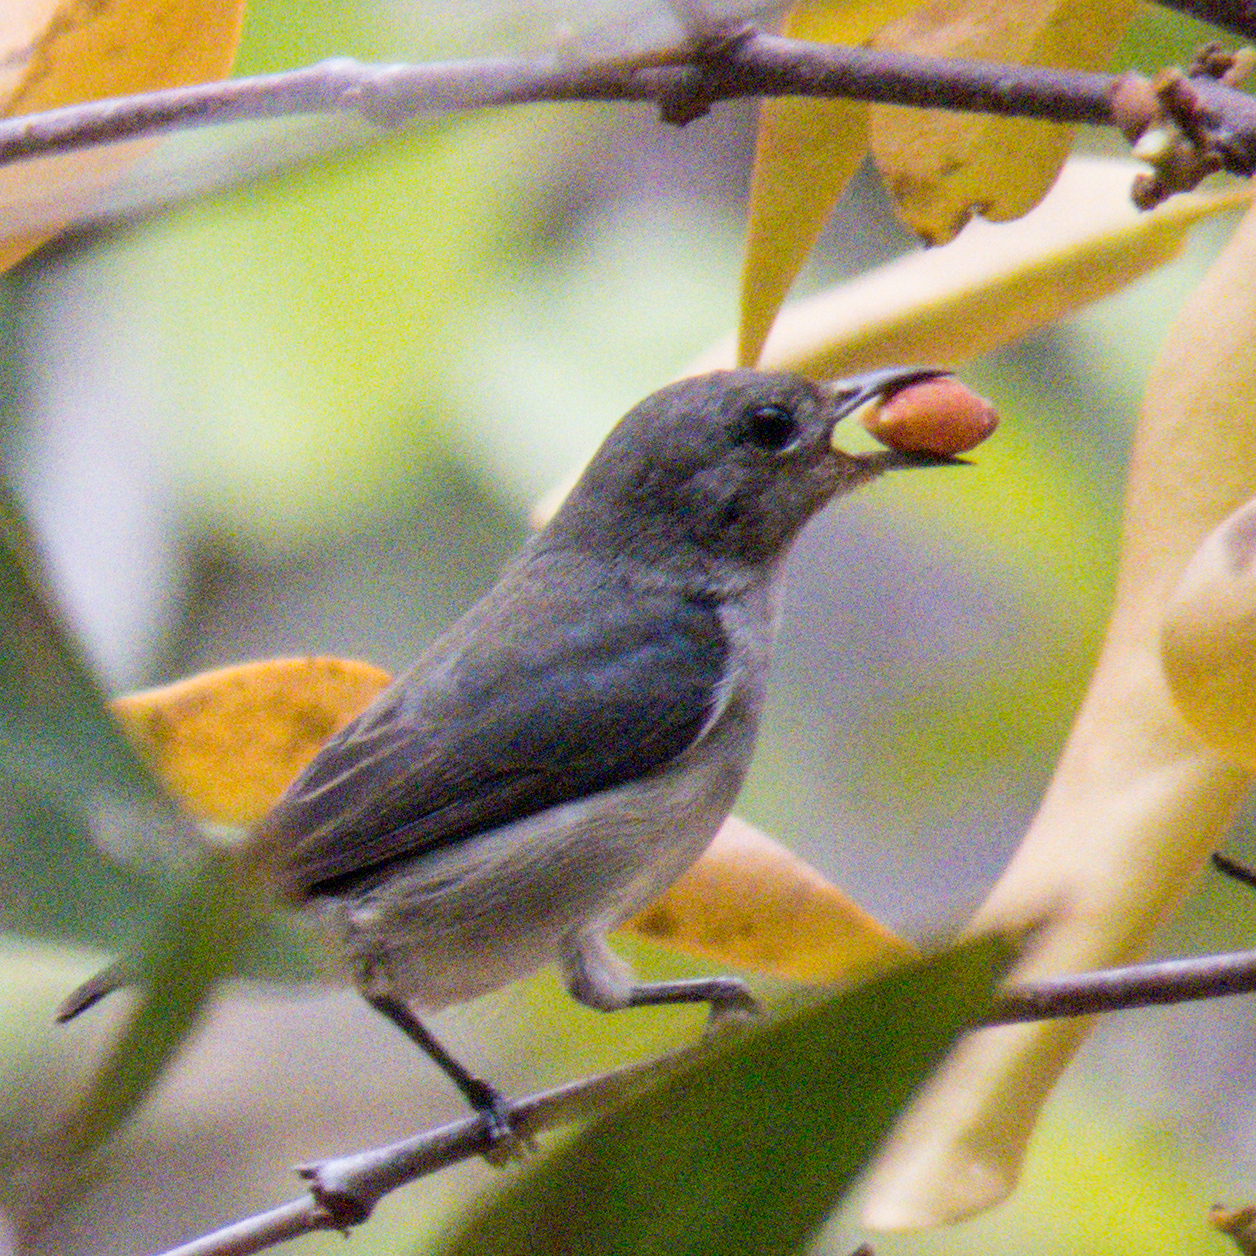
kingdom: Animalia
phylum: Chordata
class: Aves
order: Passeriformes
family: Dicaeidae
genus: Dicaeum
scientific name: Dicaeum cruentatum
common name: Scarlet-backed flowerpecker
